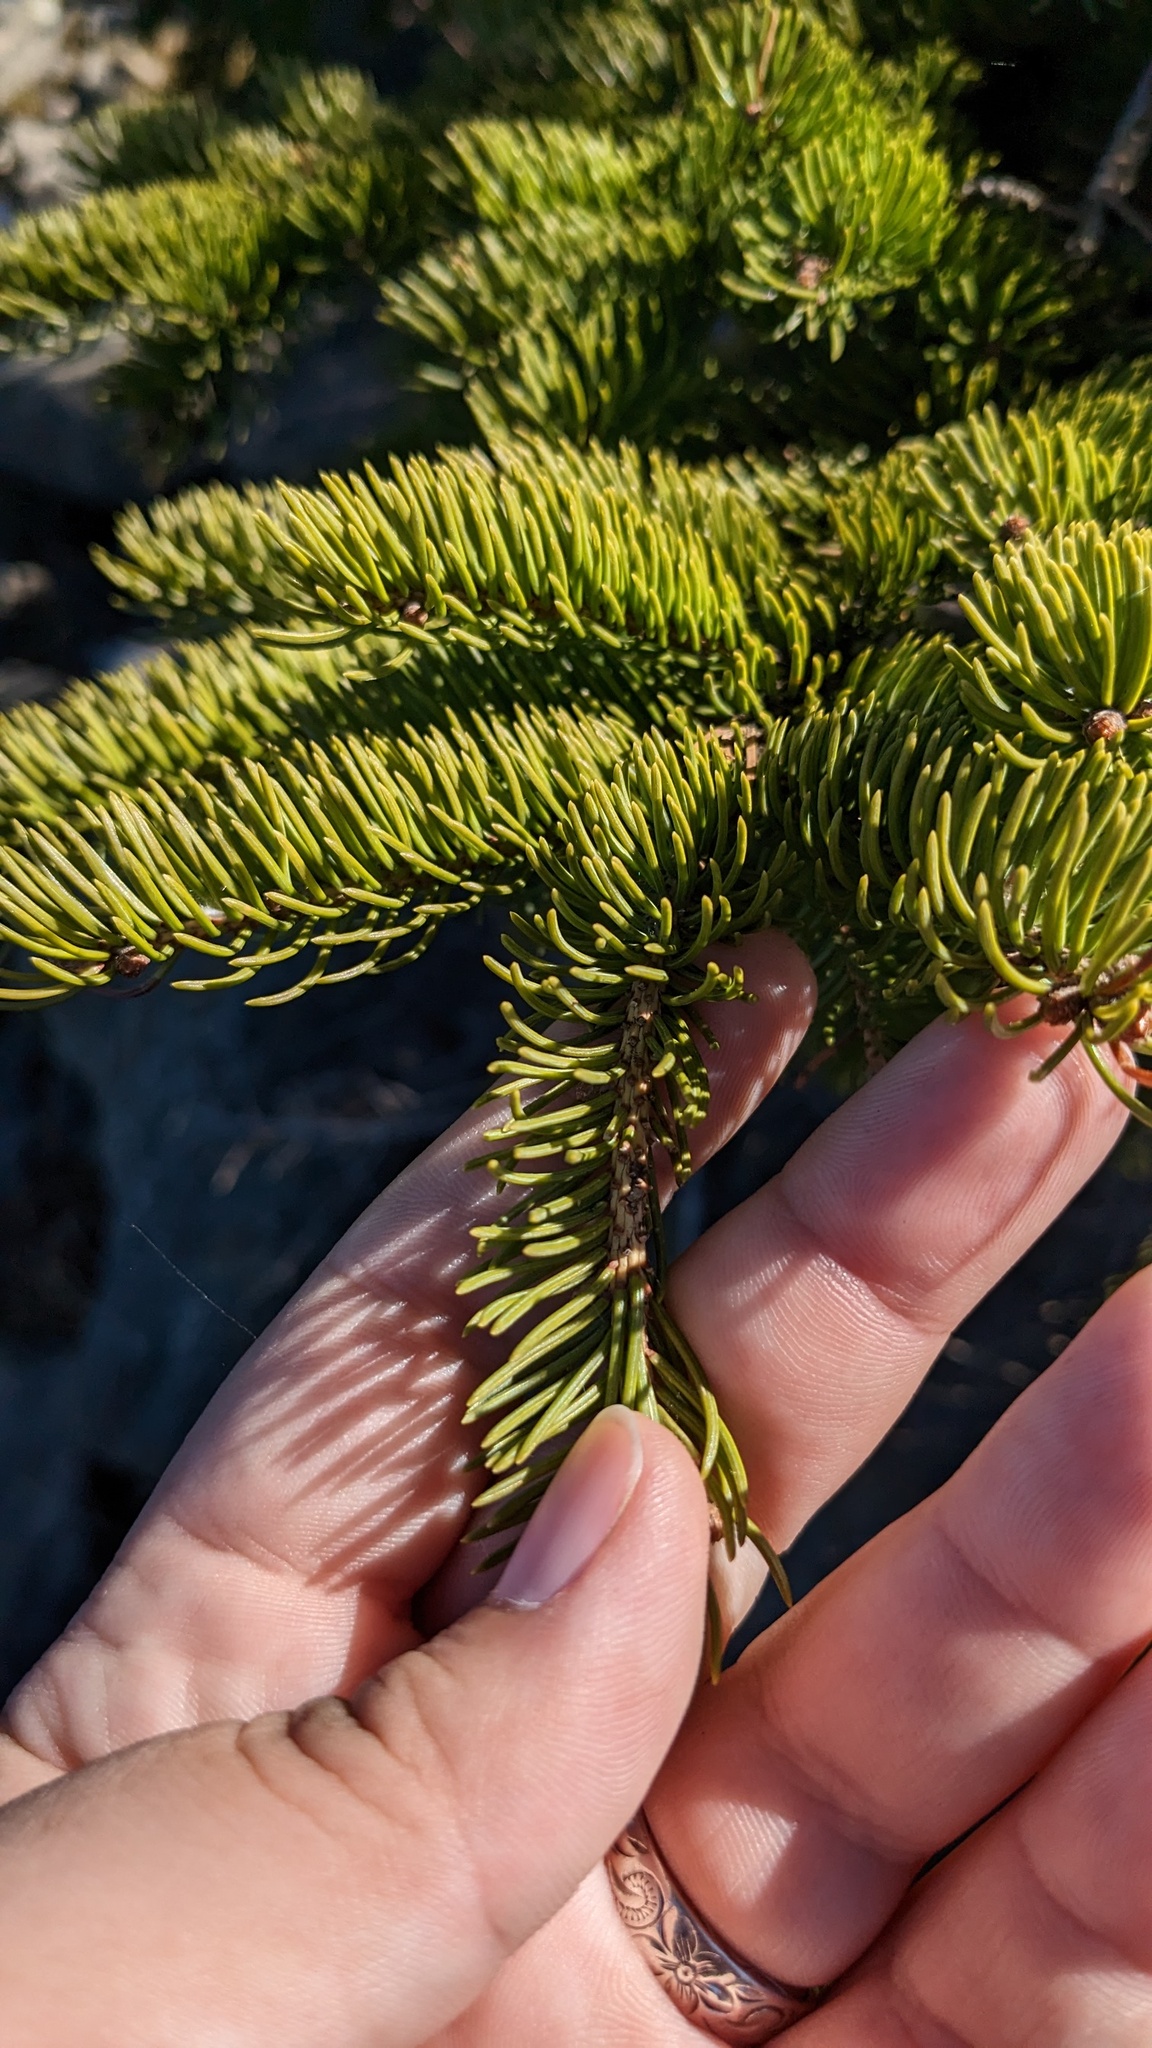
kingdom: Plantae
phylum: Tracheophyta
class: Pinopsida
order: Pinales
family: Pinaceae
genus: Picea
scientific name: Picea glauca
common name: White spruce
